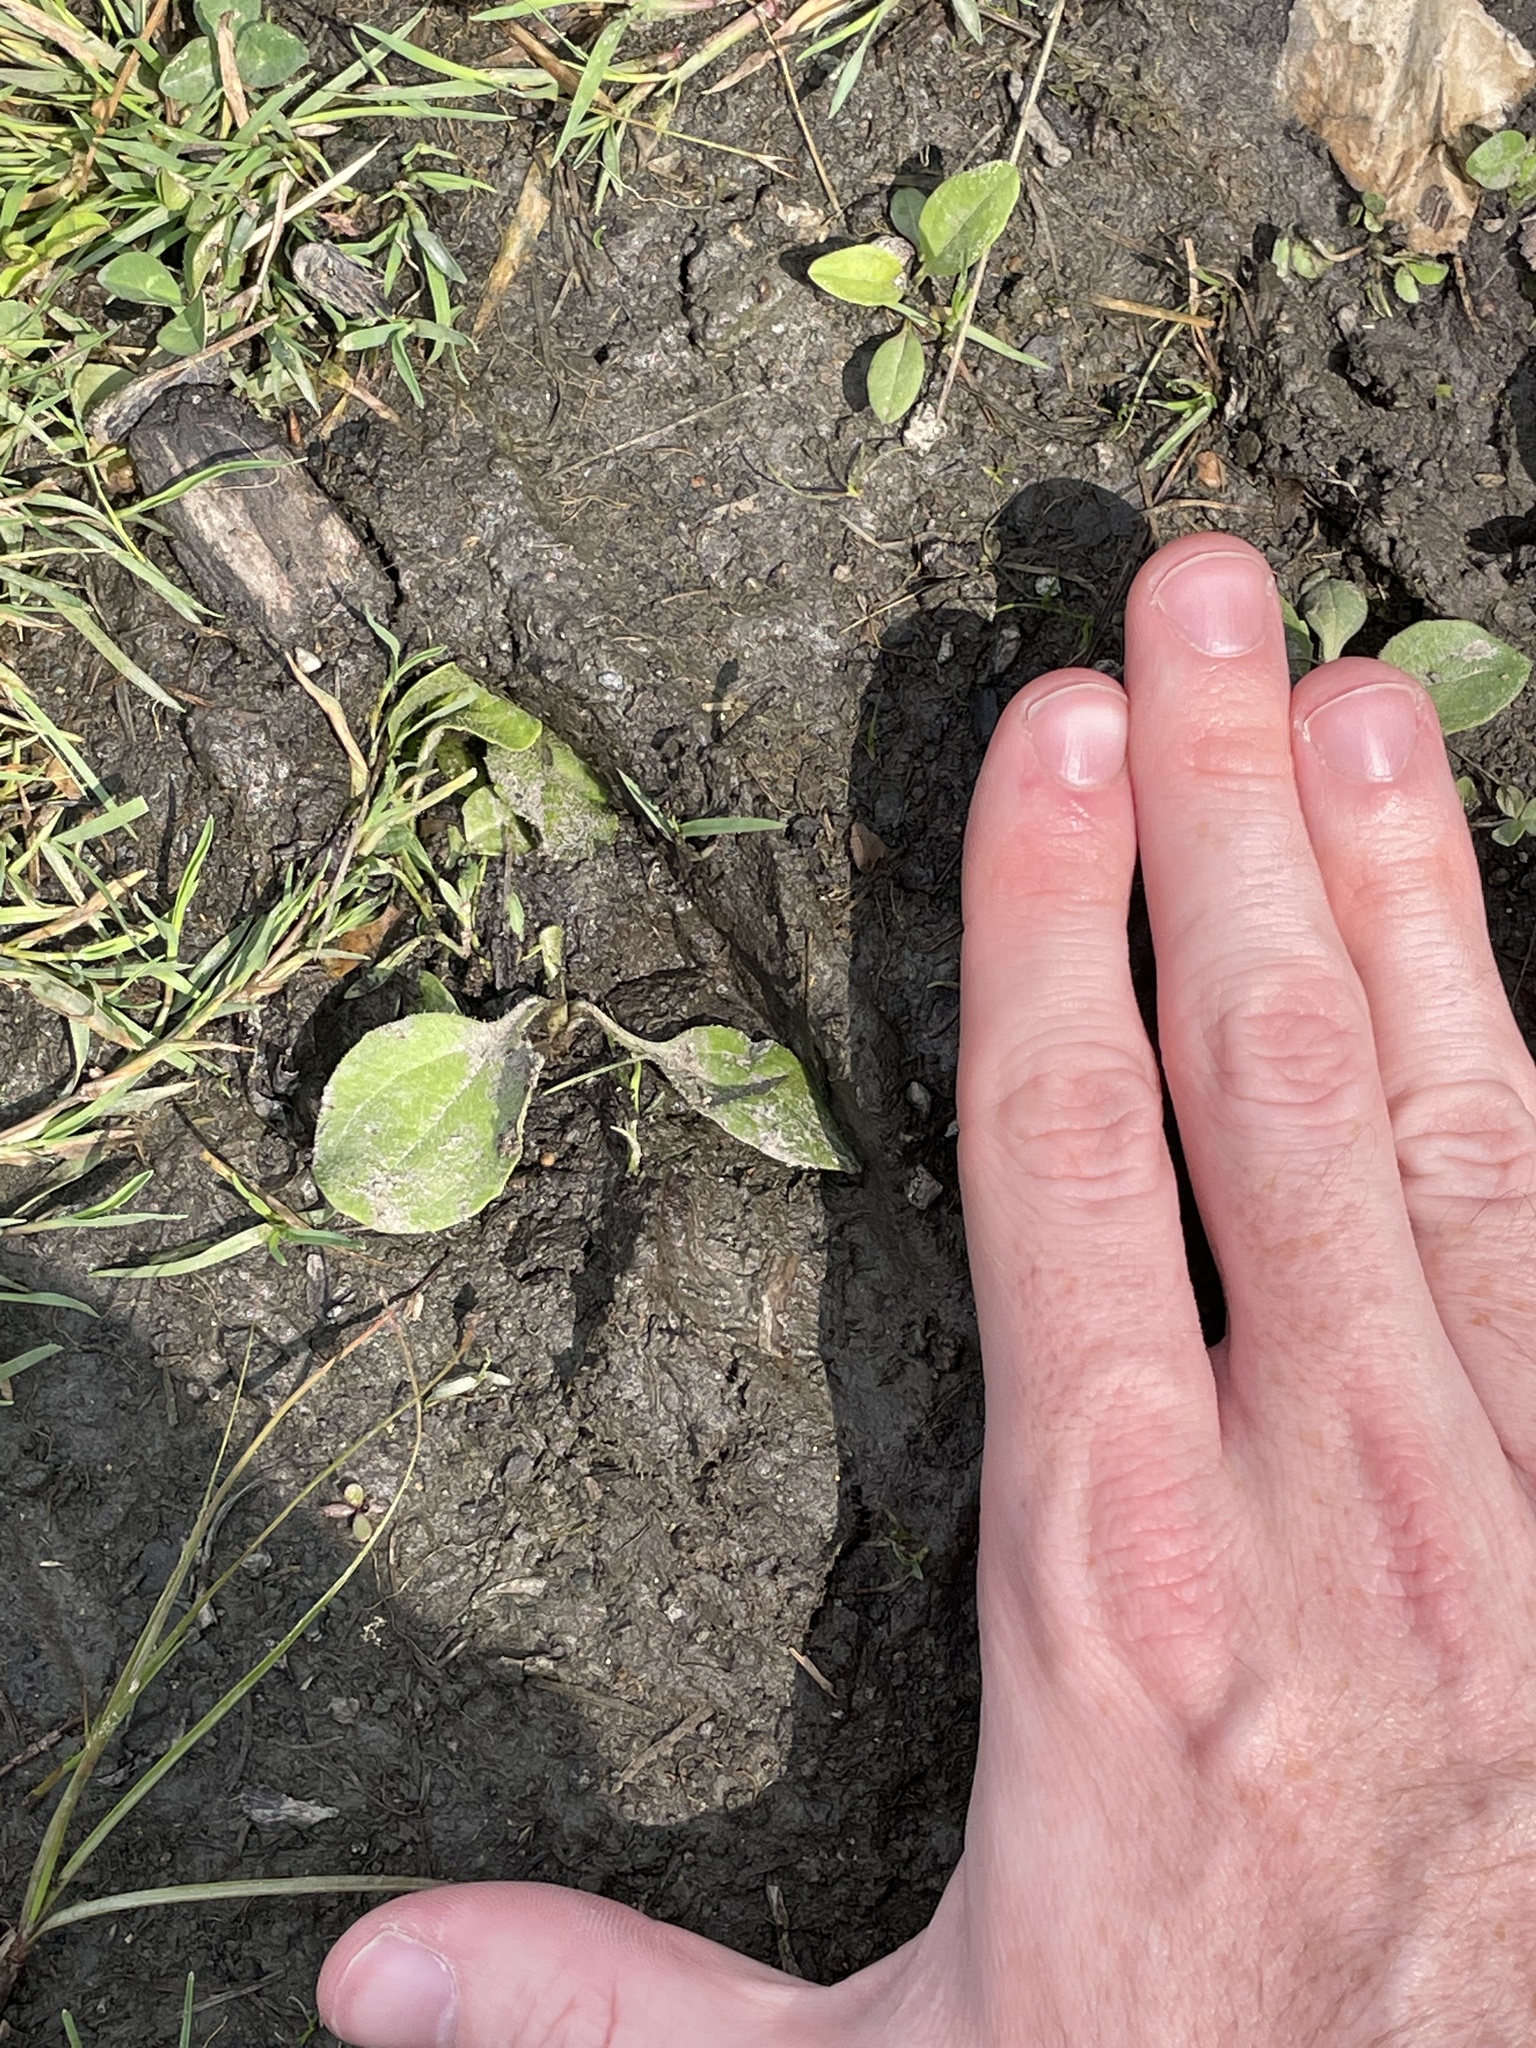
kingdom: Animalia
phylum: Chordata
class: Mammalia
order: Artiodactyla
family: Cervidae
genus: Odocoileus
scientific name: Odocoileus virginianus
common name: White-tailed deer
